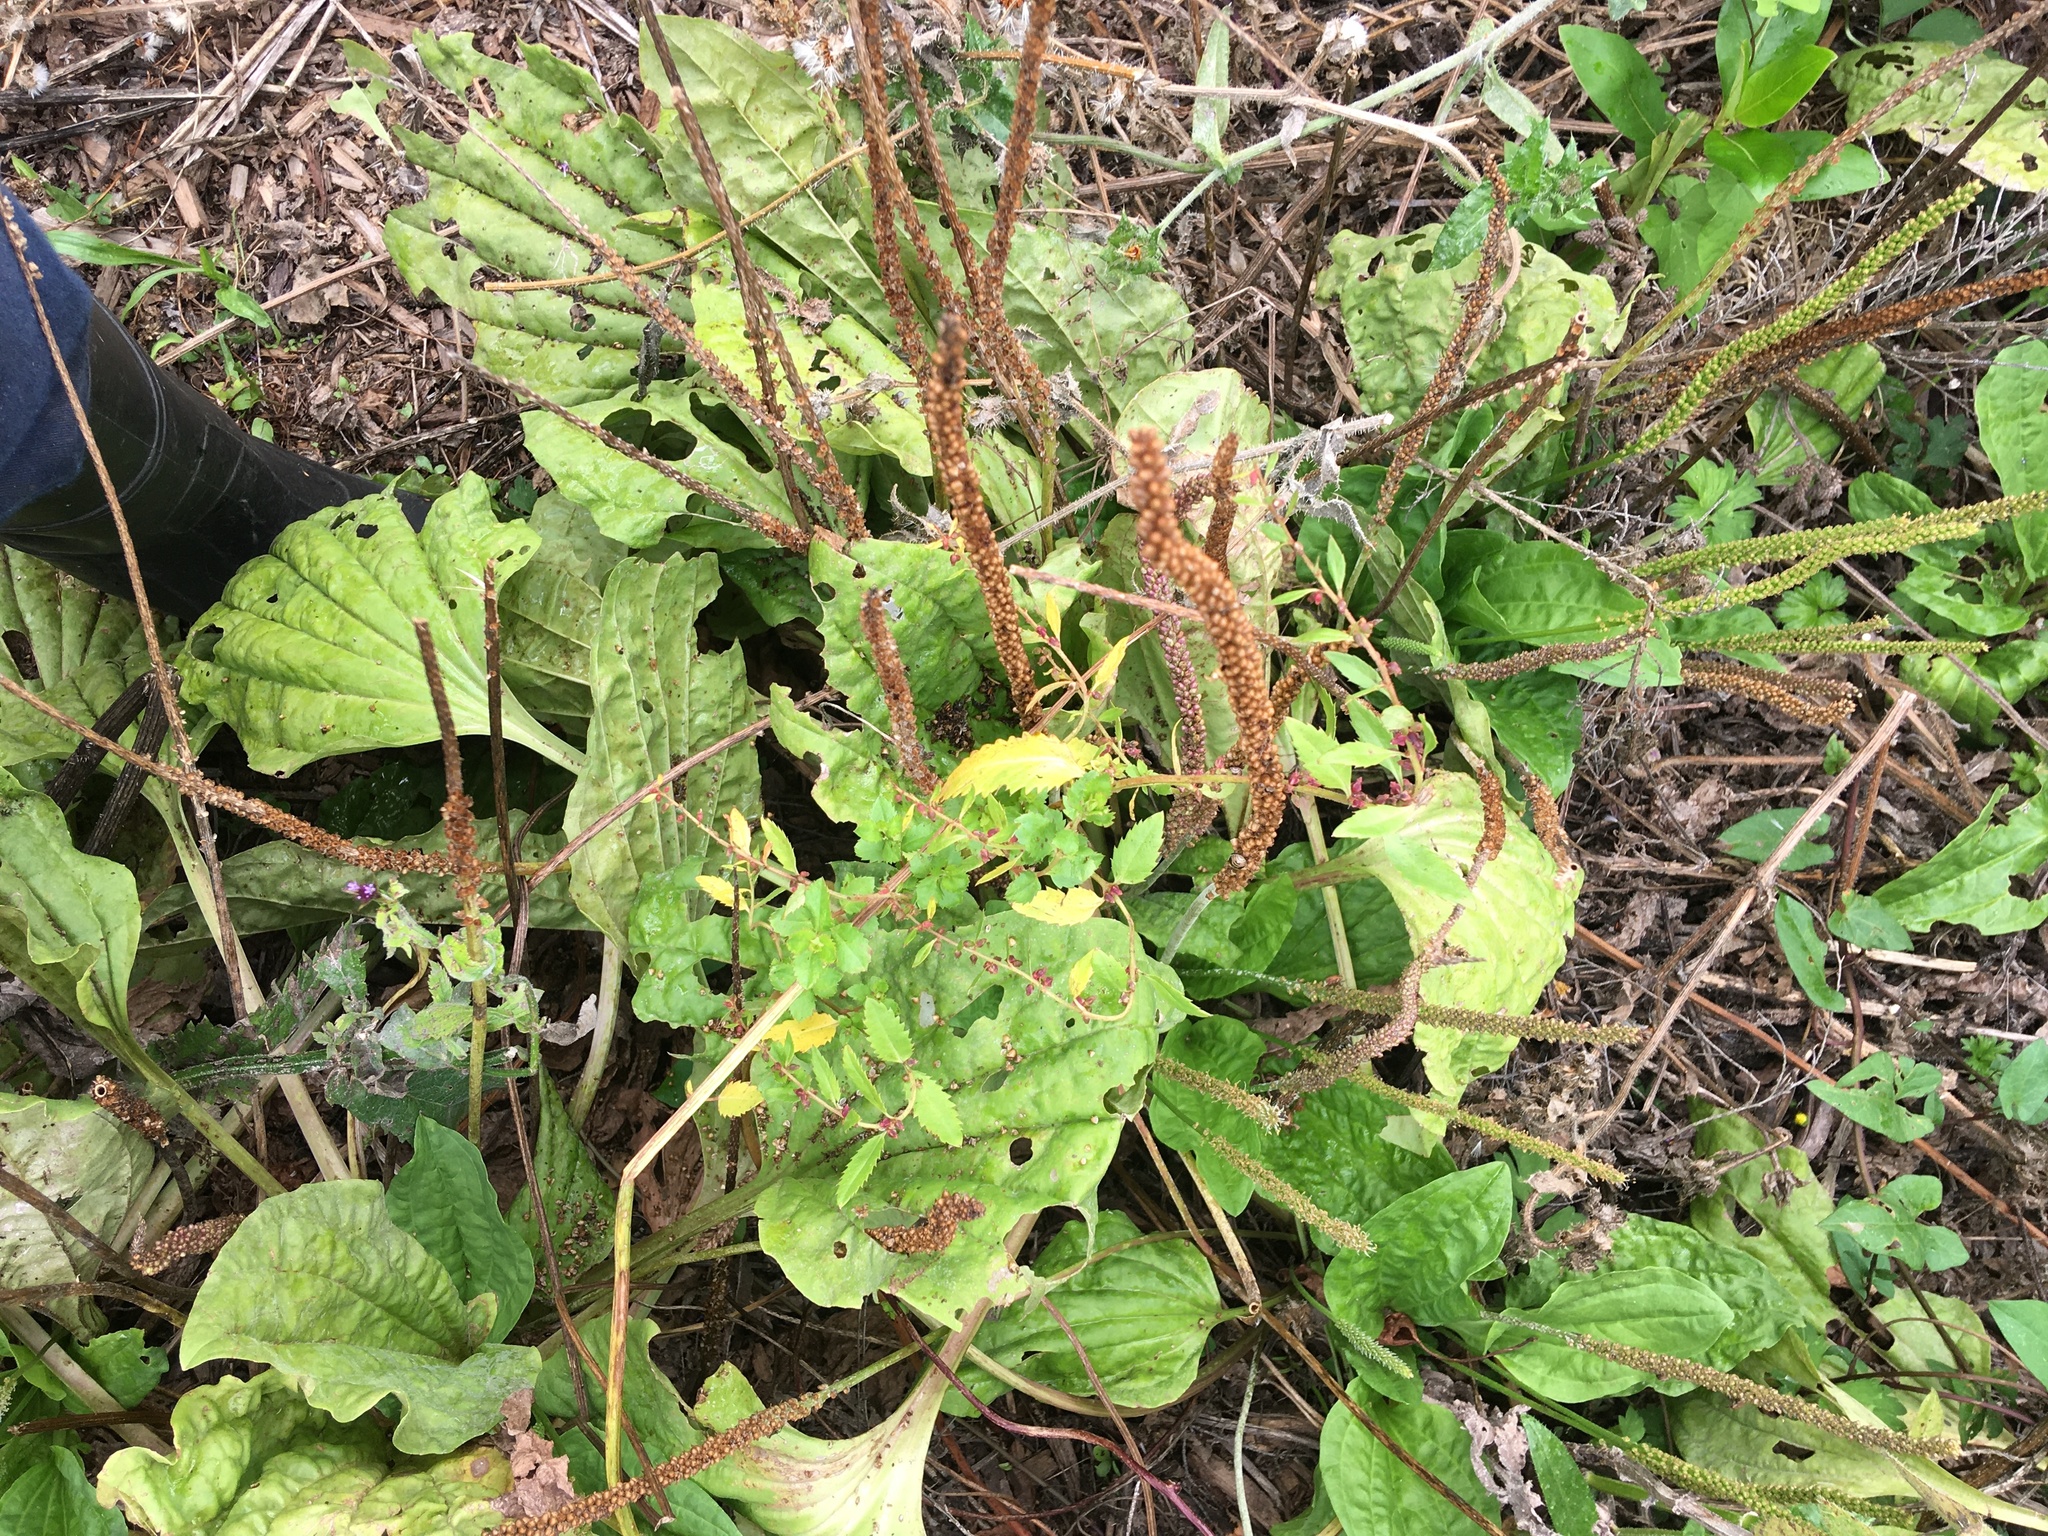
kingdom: Animalia
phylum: Arthropoda
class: Insecta
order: Hemiptera
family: Pentatomidae
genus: Dictyotus
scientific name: Dictyotus caenosus
